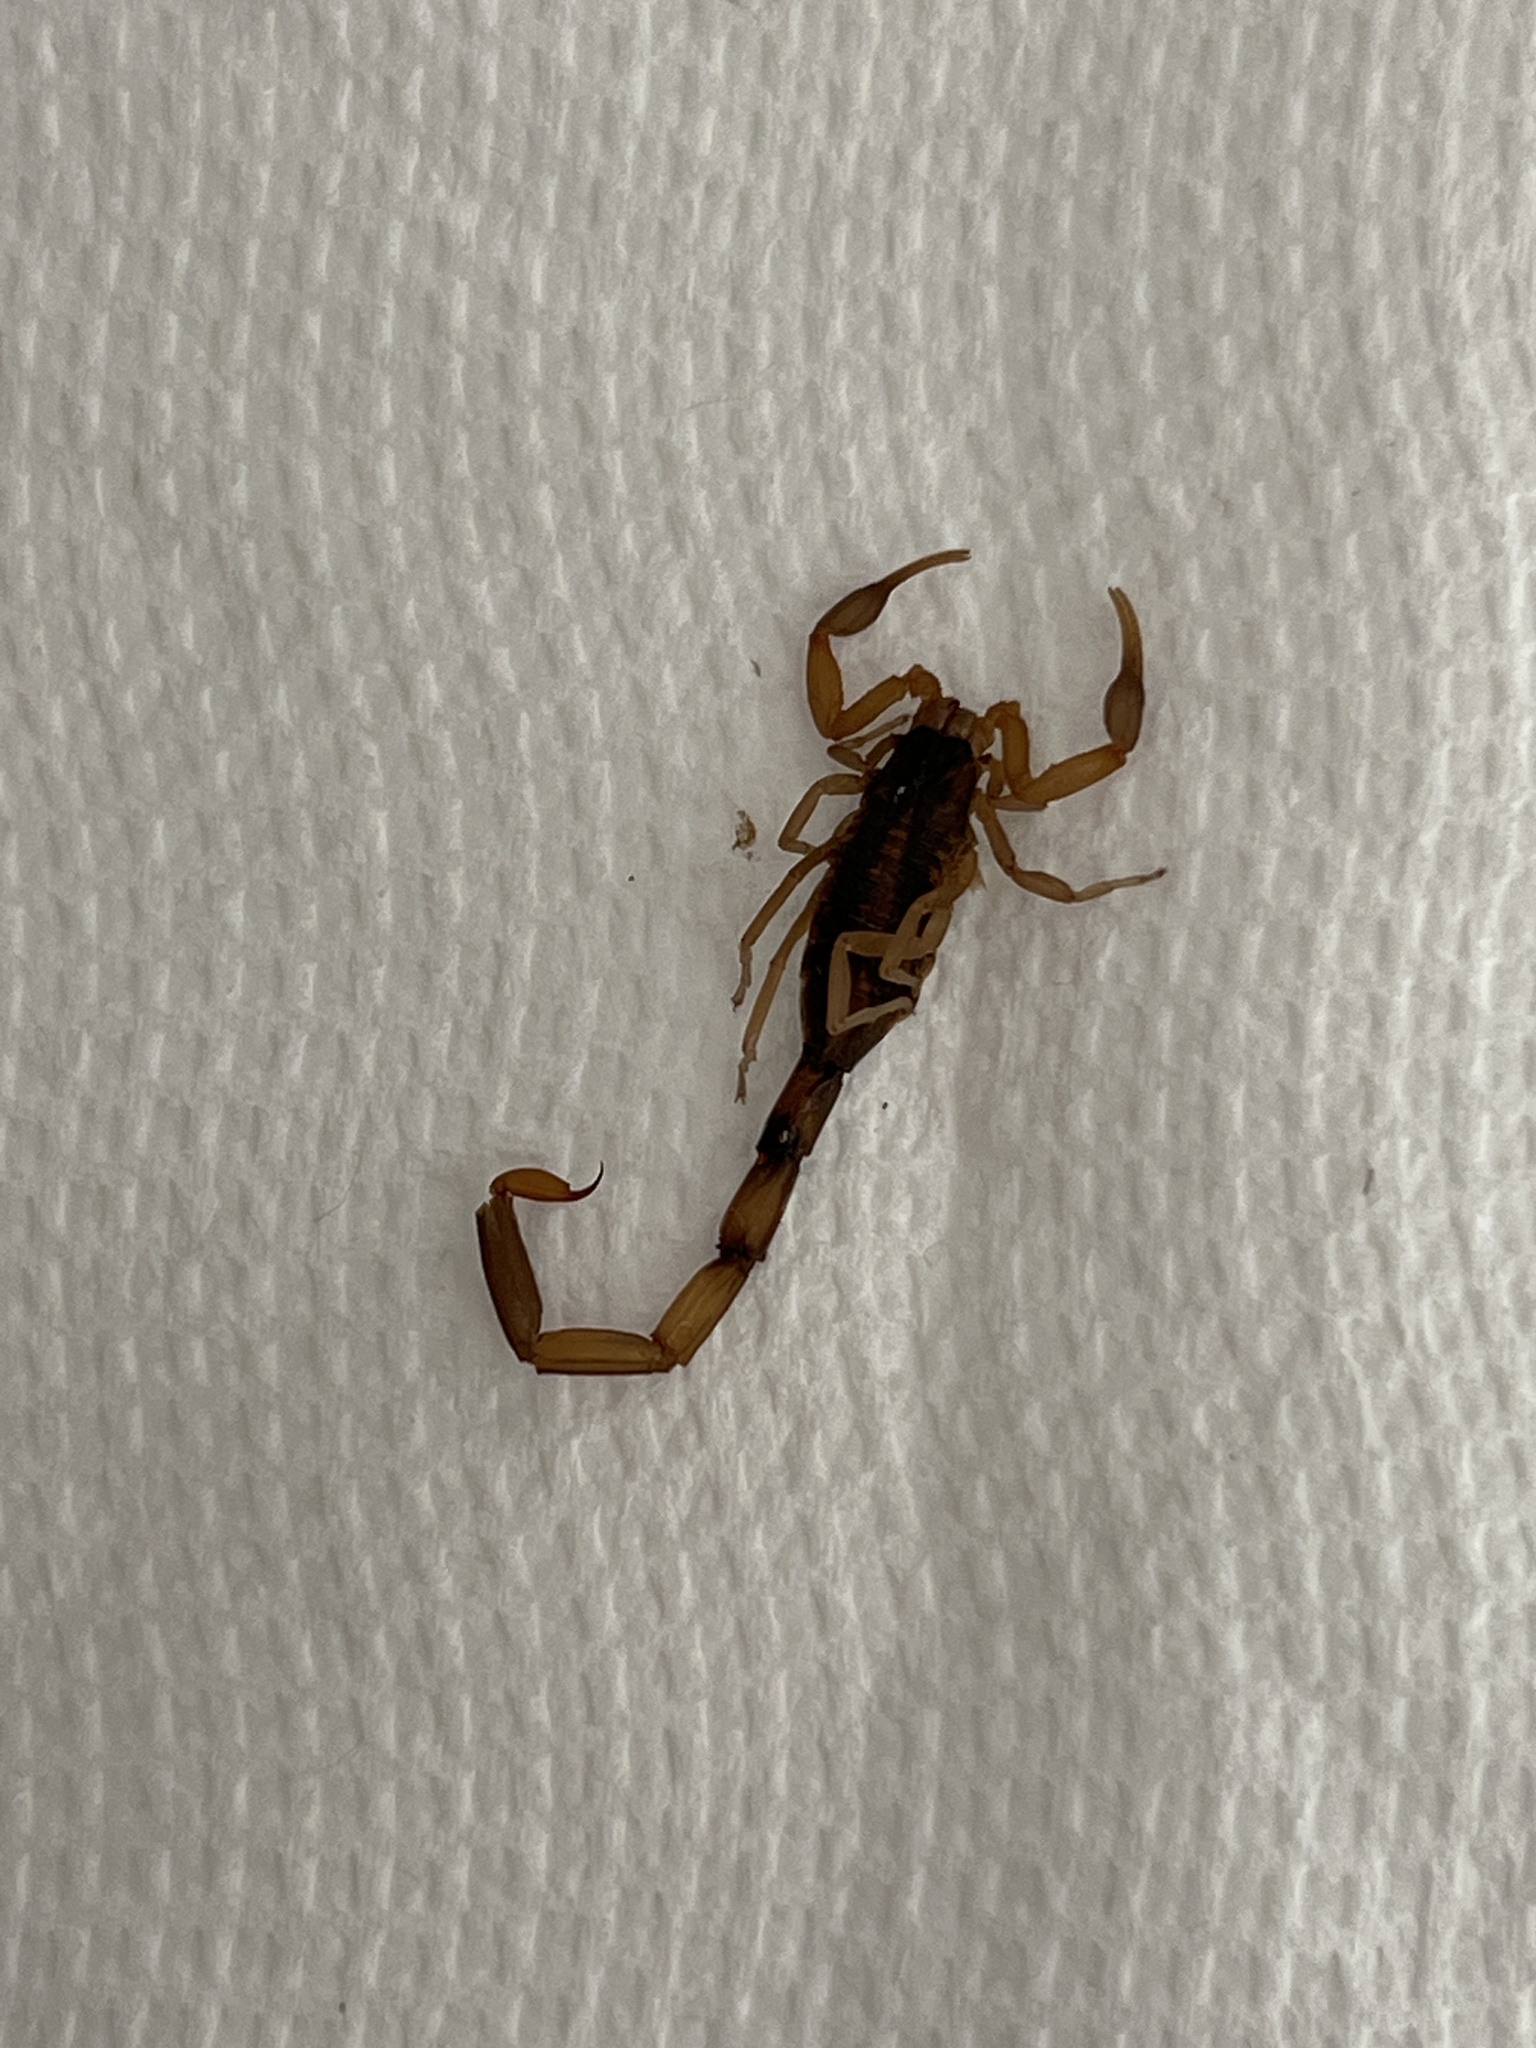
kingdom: Animalia
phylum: Arthropoda
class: Arachnida
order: Scorpiones
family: Buthidae
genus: Centruroides
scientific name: Centruroides vittatus
